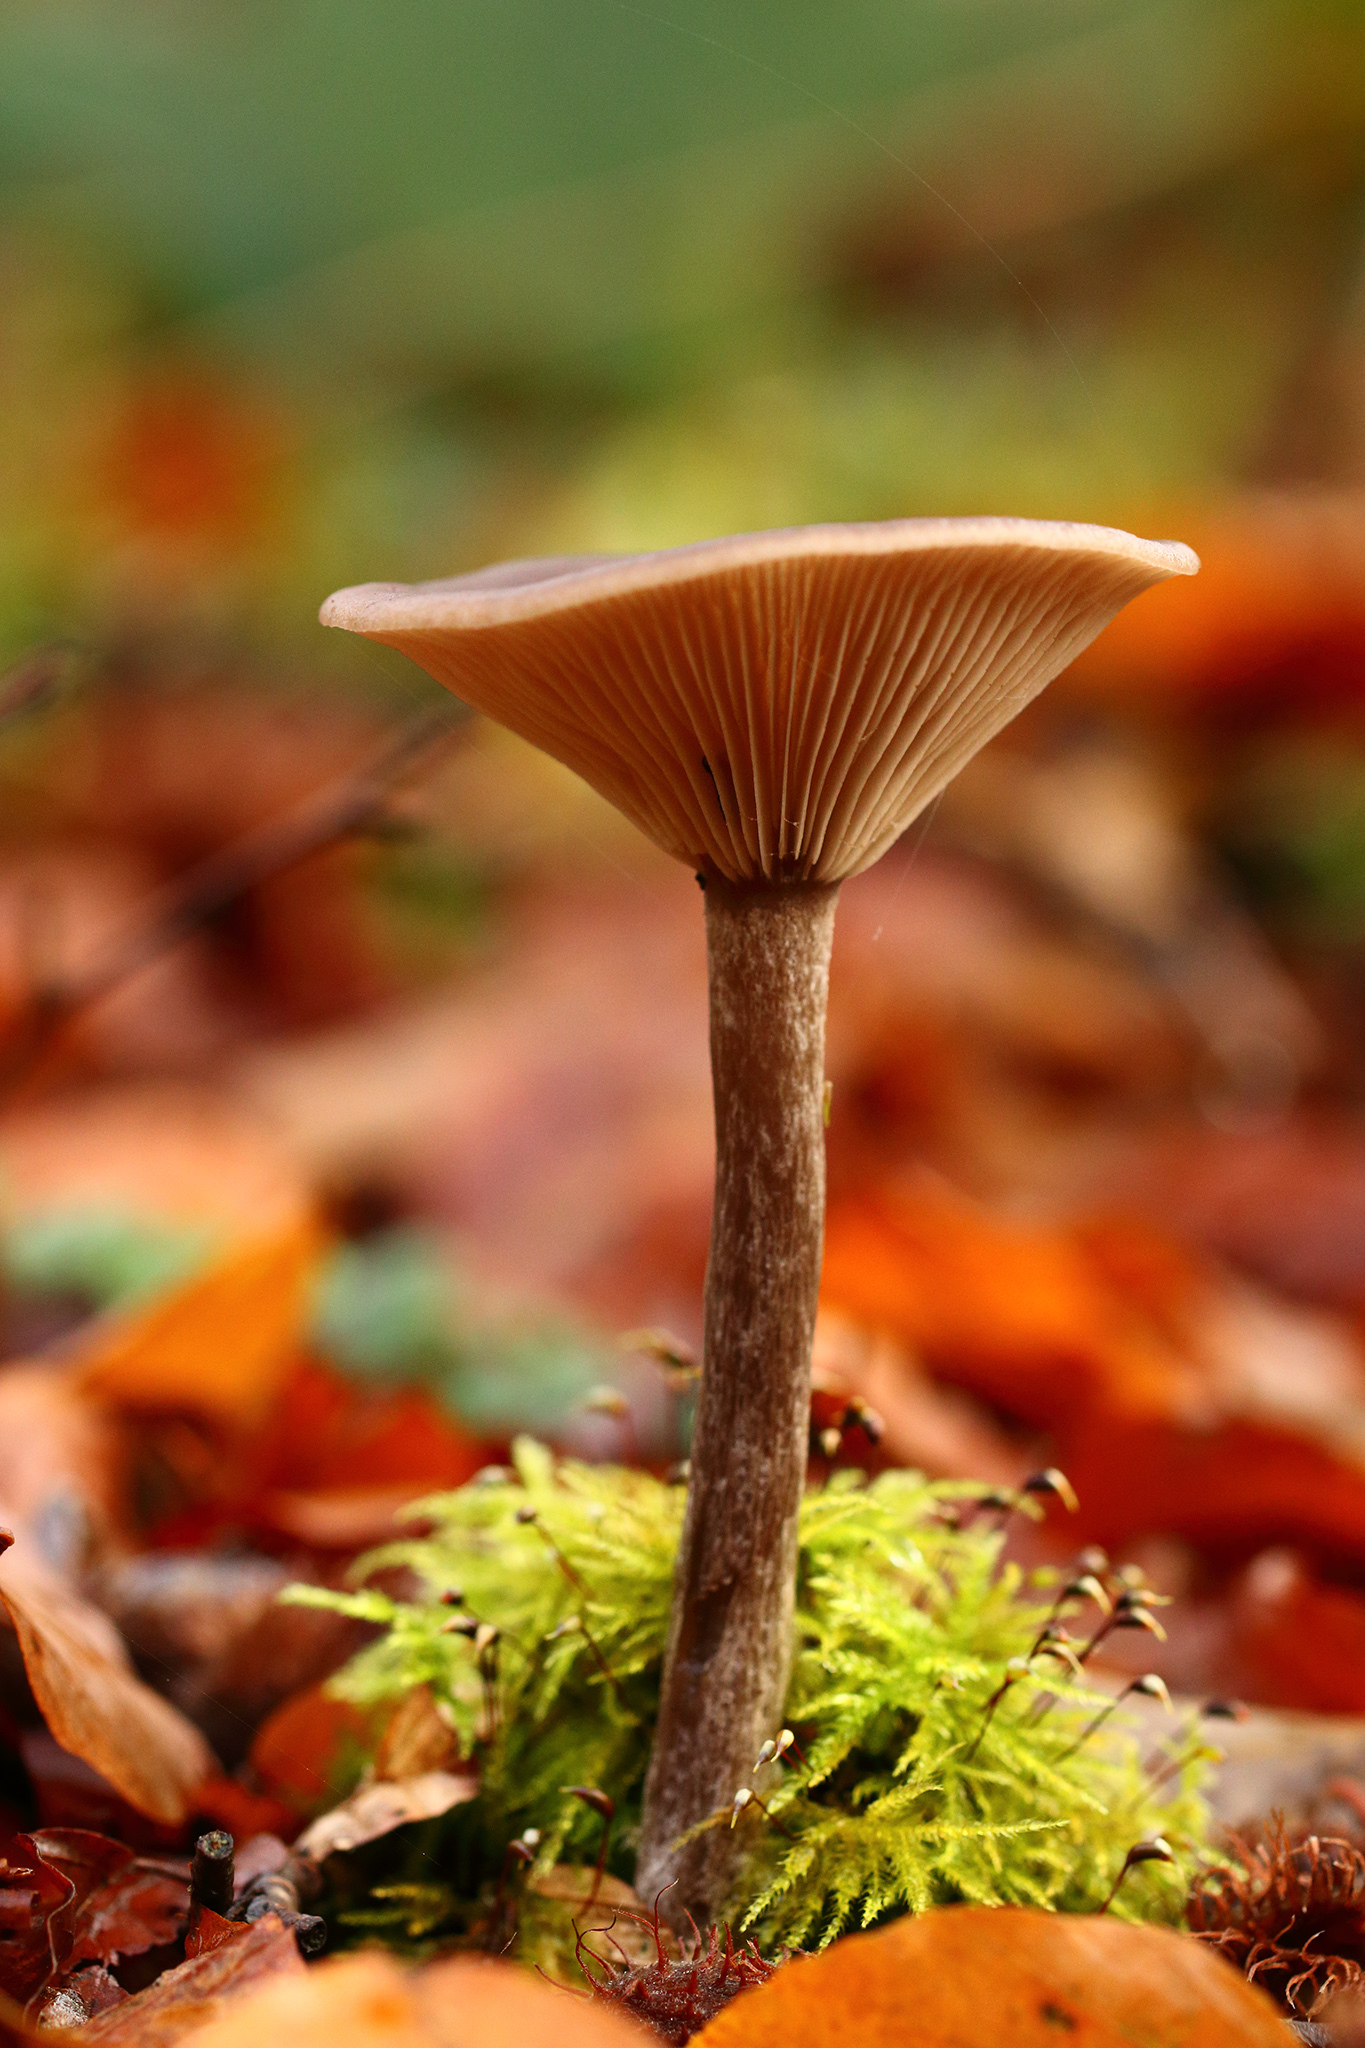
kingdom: Fungi
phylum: Basidiomycota
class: Agaricomycetes
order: Agaricales
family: Pseudoclitocybaceae
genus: Pseudoclitocybe
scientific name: Pseudoclitocybe cyathiformis
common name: Goblet
